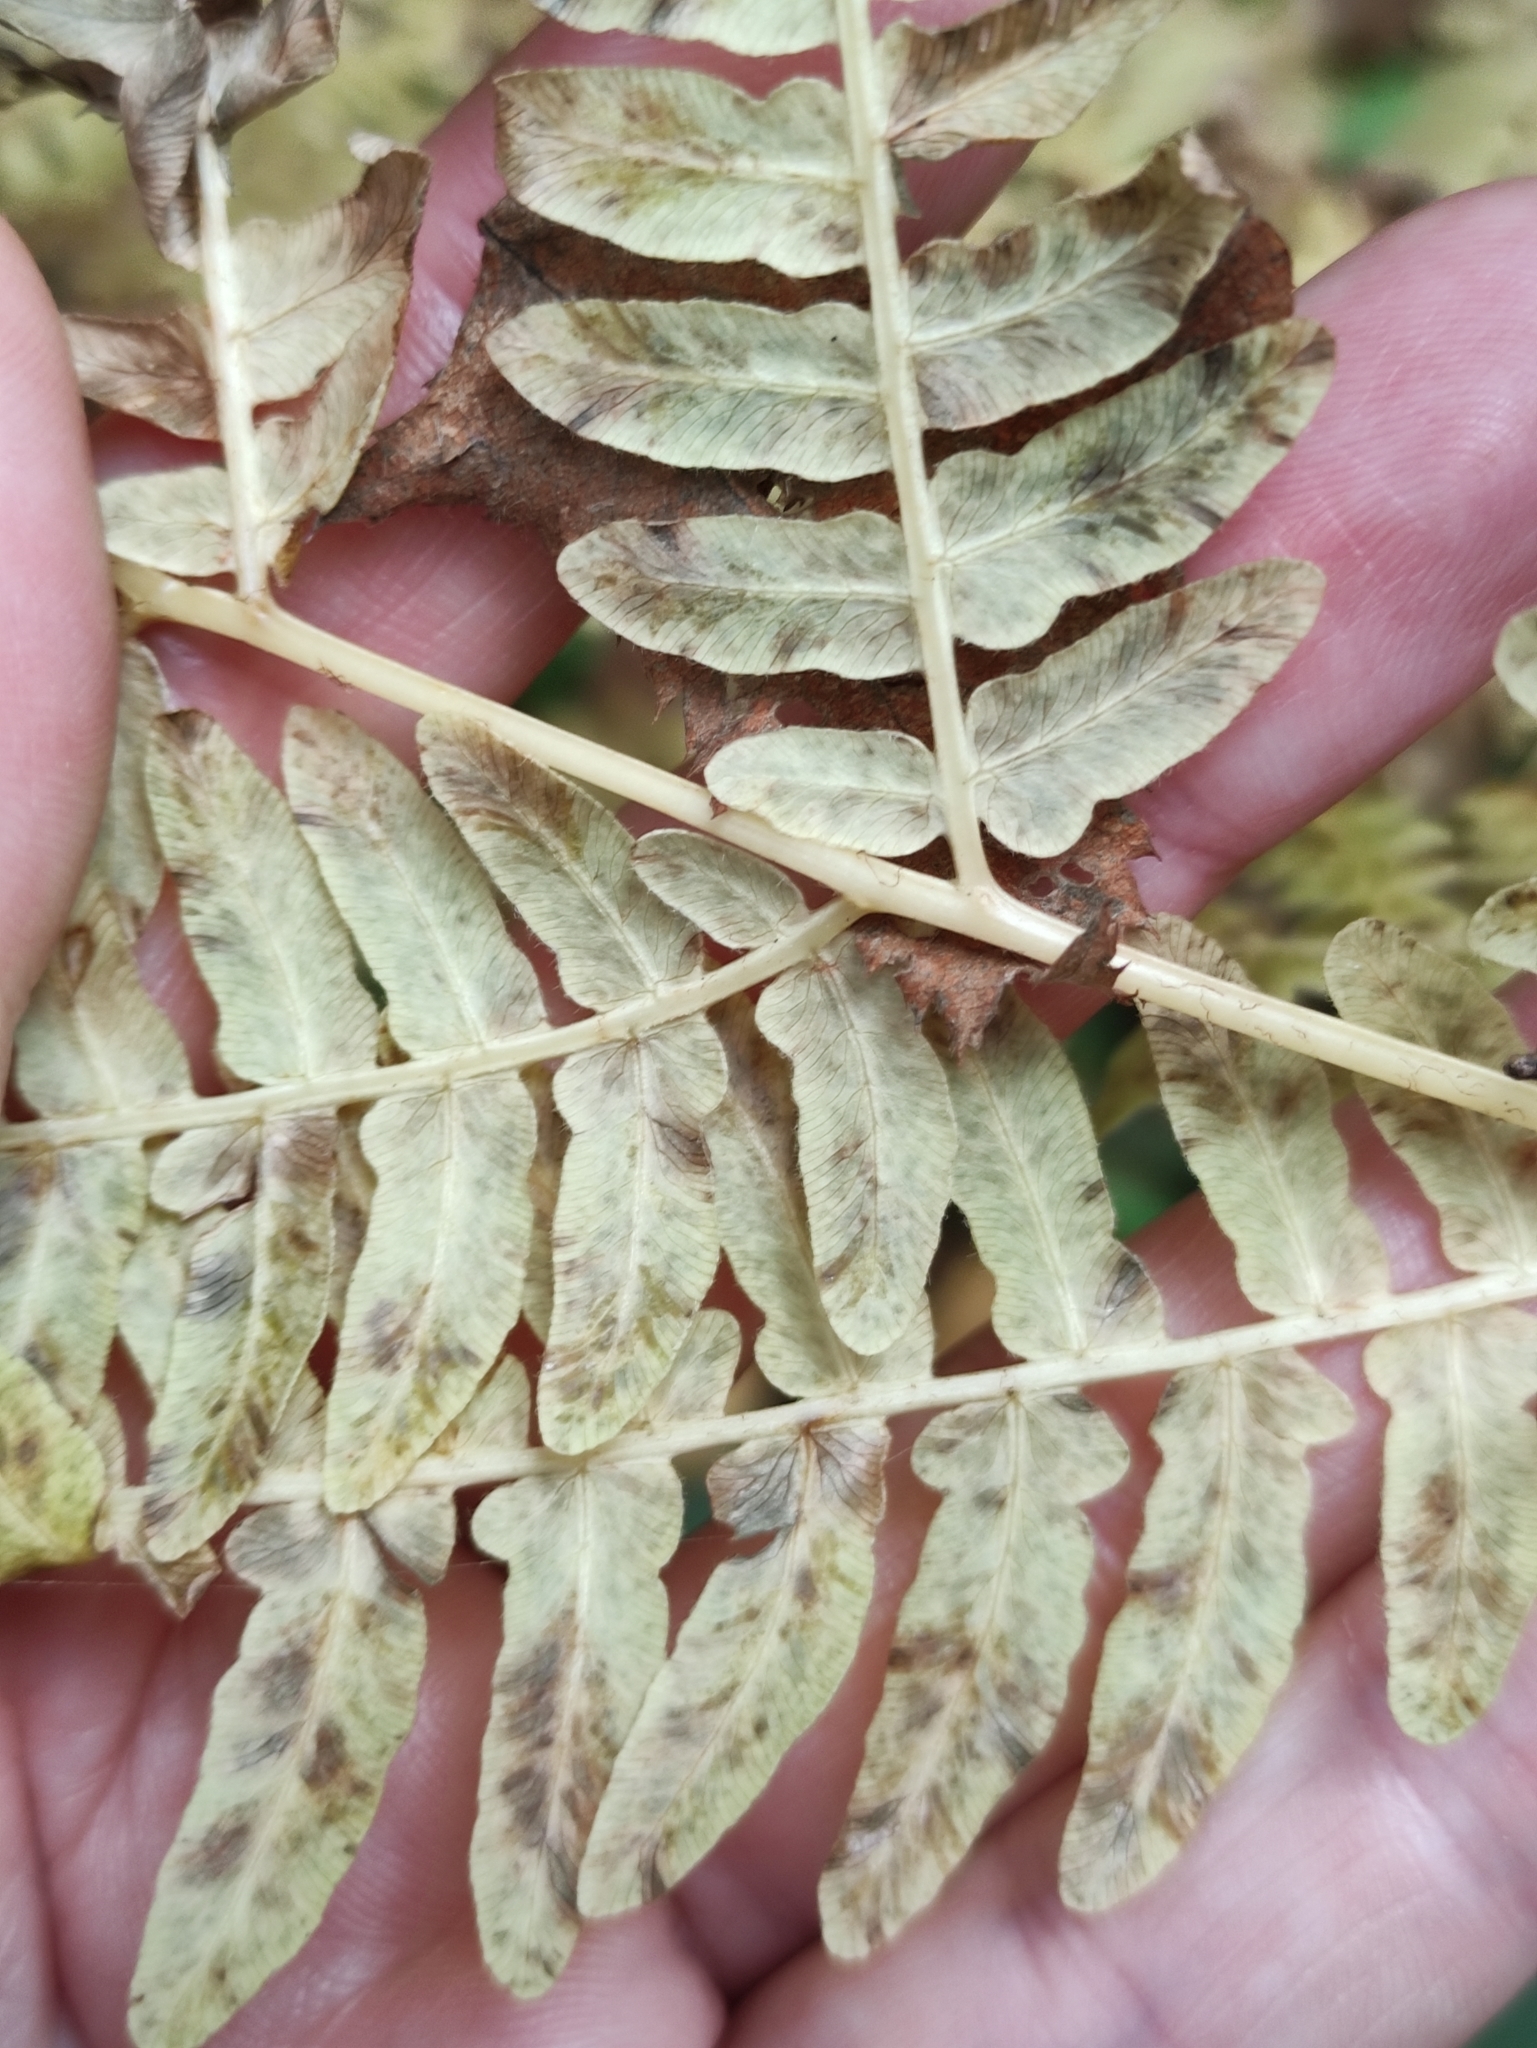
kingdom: Plantae
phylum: Tracheophyta
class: Polypodiopsida
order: Polypodiales
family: Dennstaedtiaceae
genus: Pteridium
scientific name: Pteridium aquilinum
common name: Bracken
